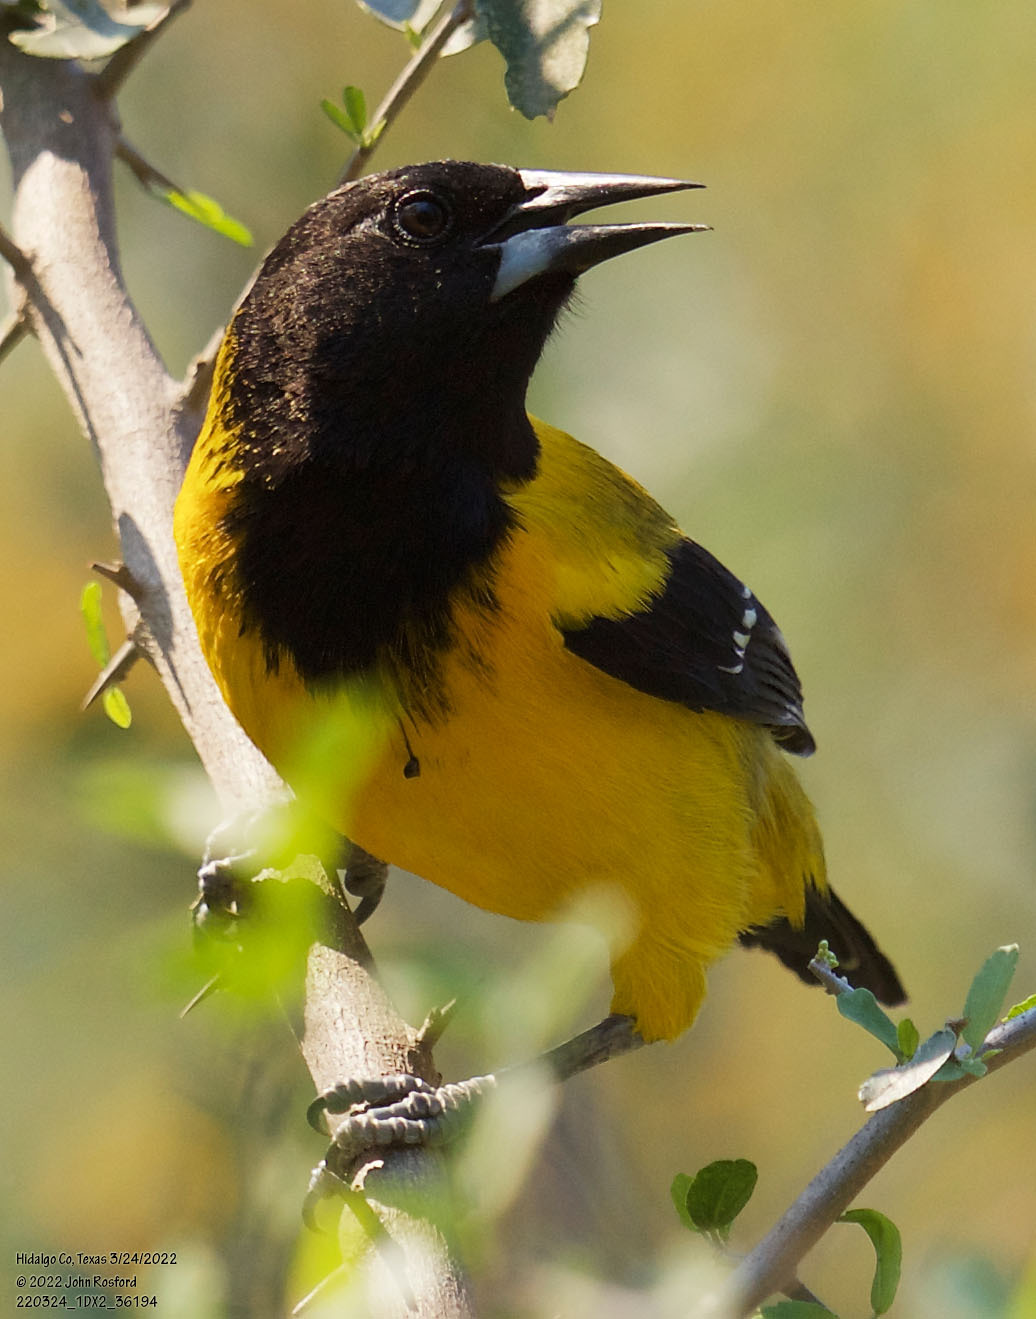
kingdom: Animalia
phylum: Chordata
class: Aves
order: Passeriformes
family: Icteridae
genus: Icterus
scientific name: Icterus graduacauda
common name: Audubon's oriole
